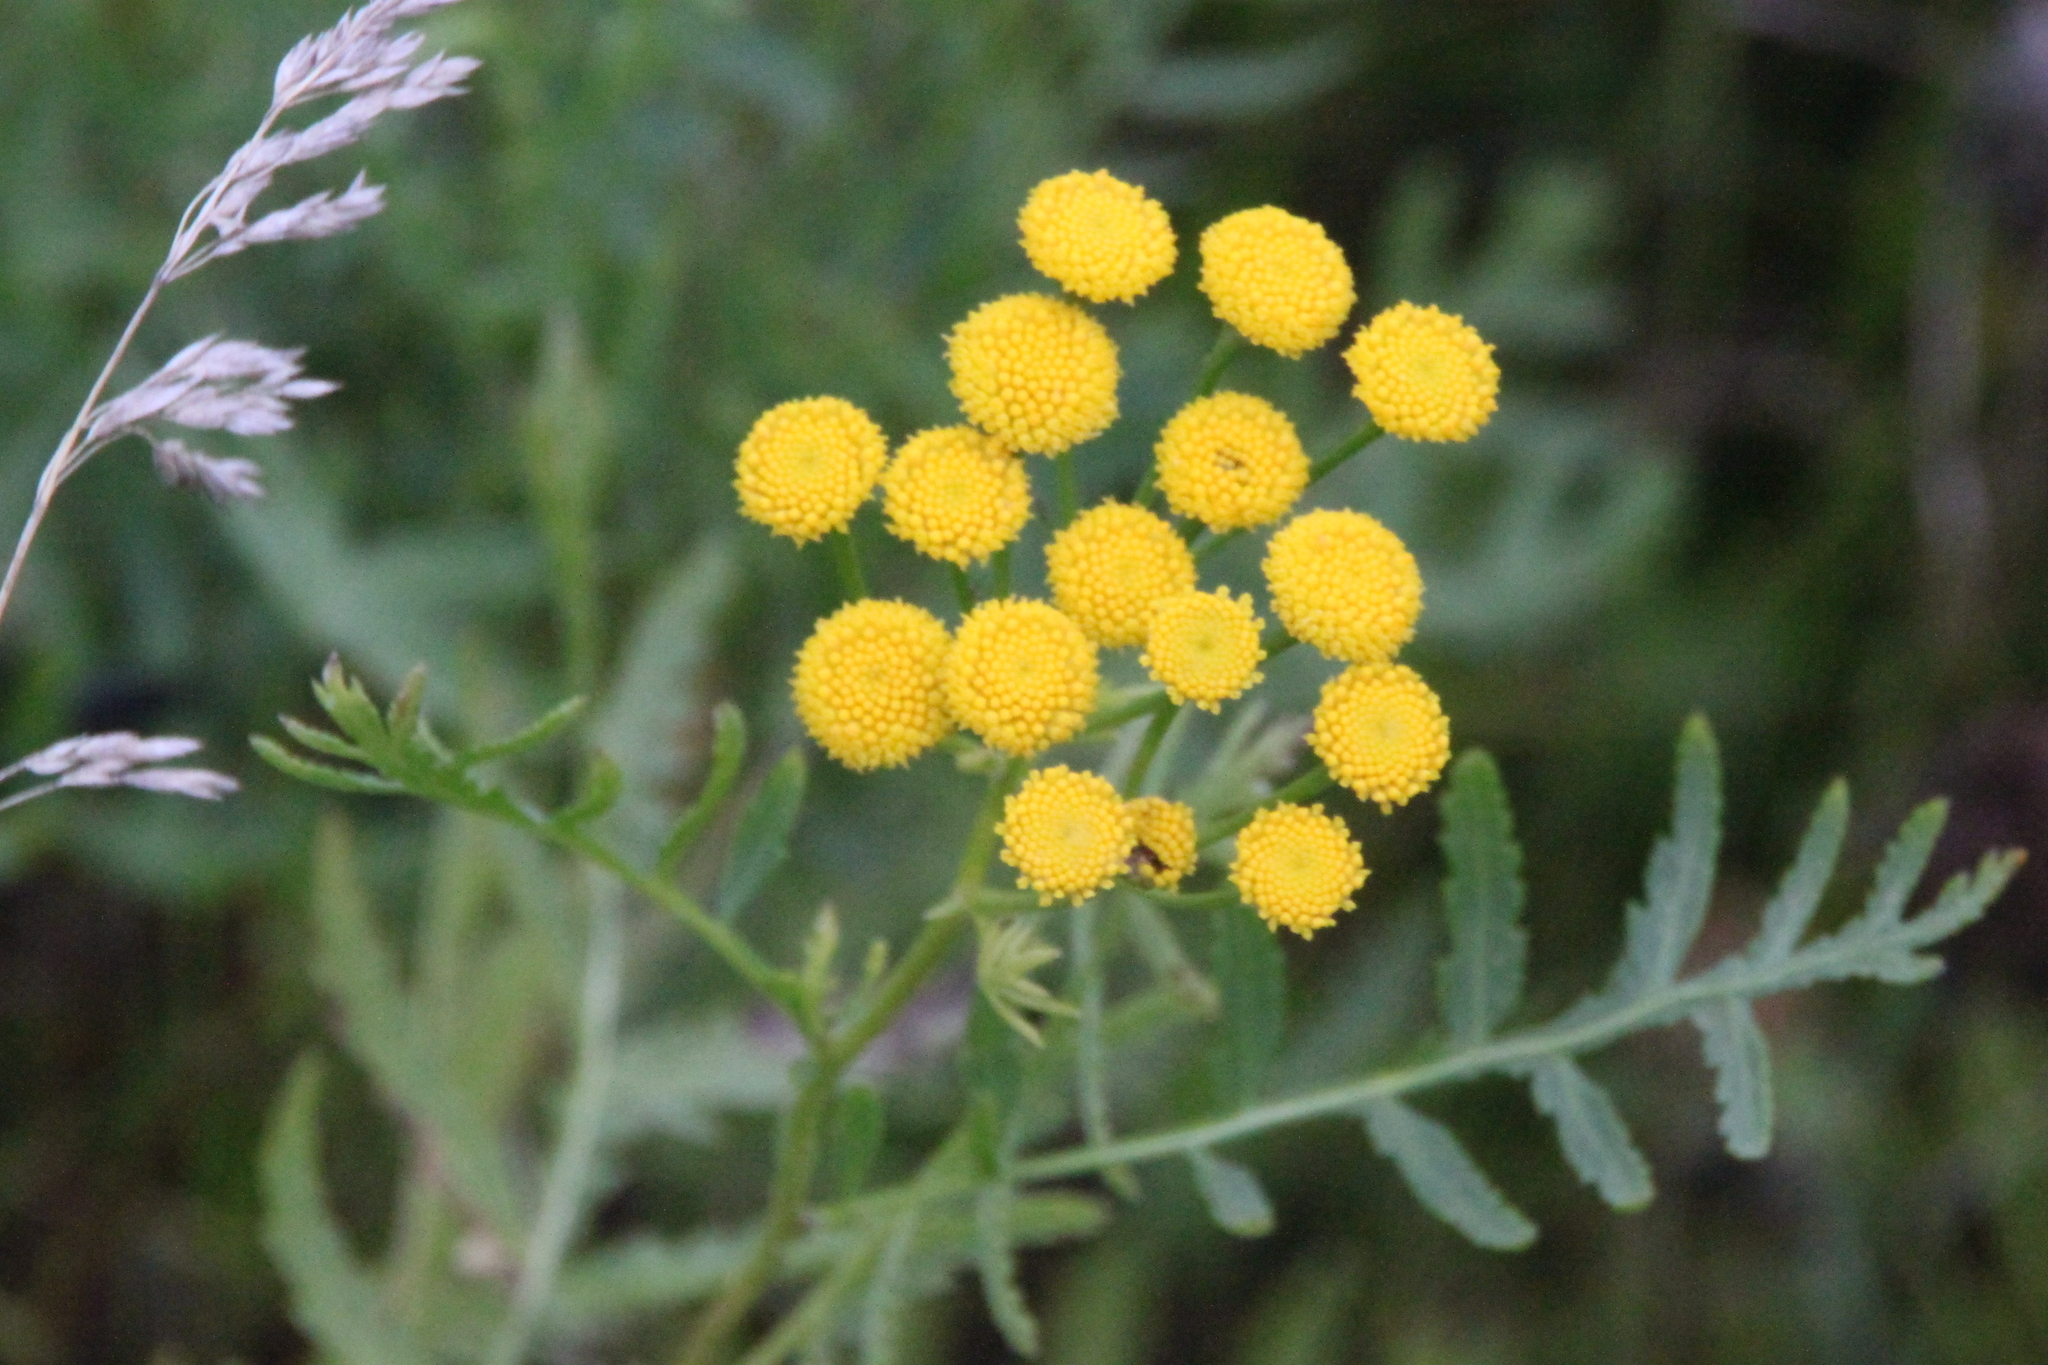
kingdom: Plantae
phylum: Tracheophyta
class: Magnoliopsida
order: Asterales
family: Asteraceae
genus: Tanacetum
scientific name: Tanacetum vulgare
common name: Common tansy
